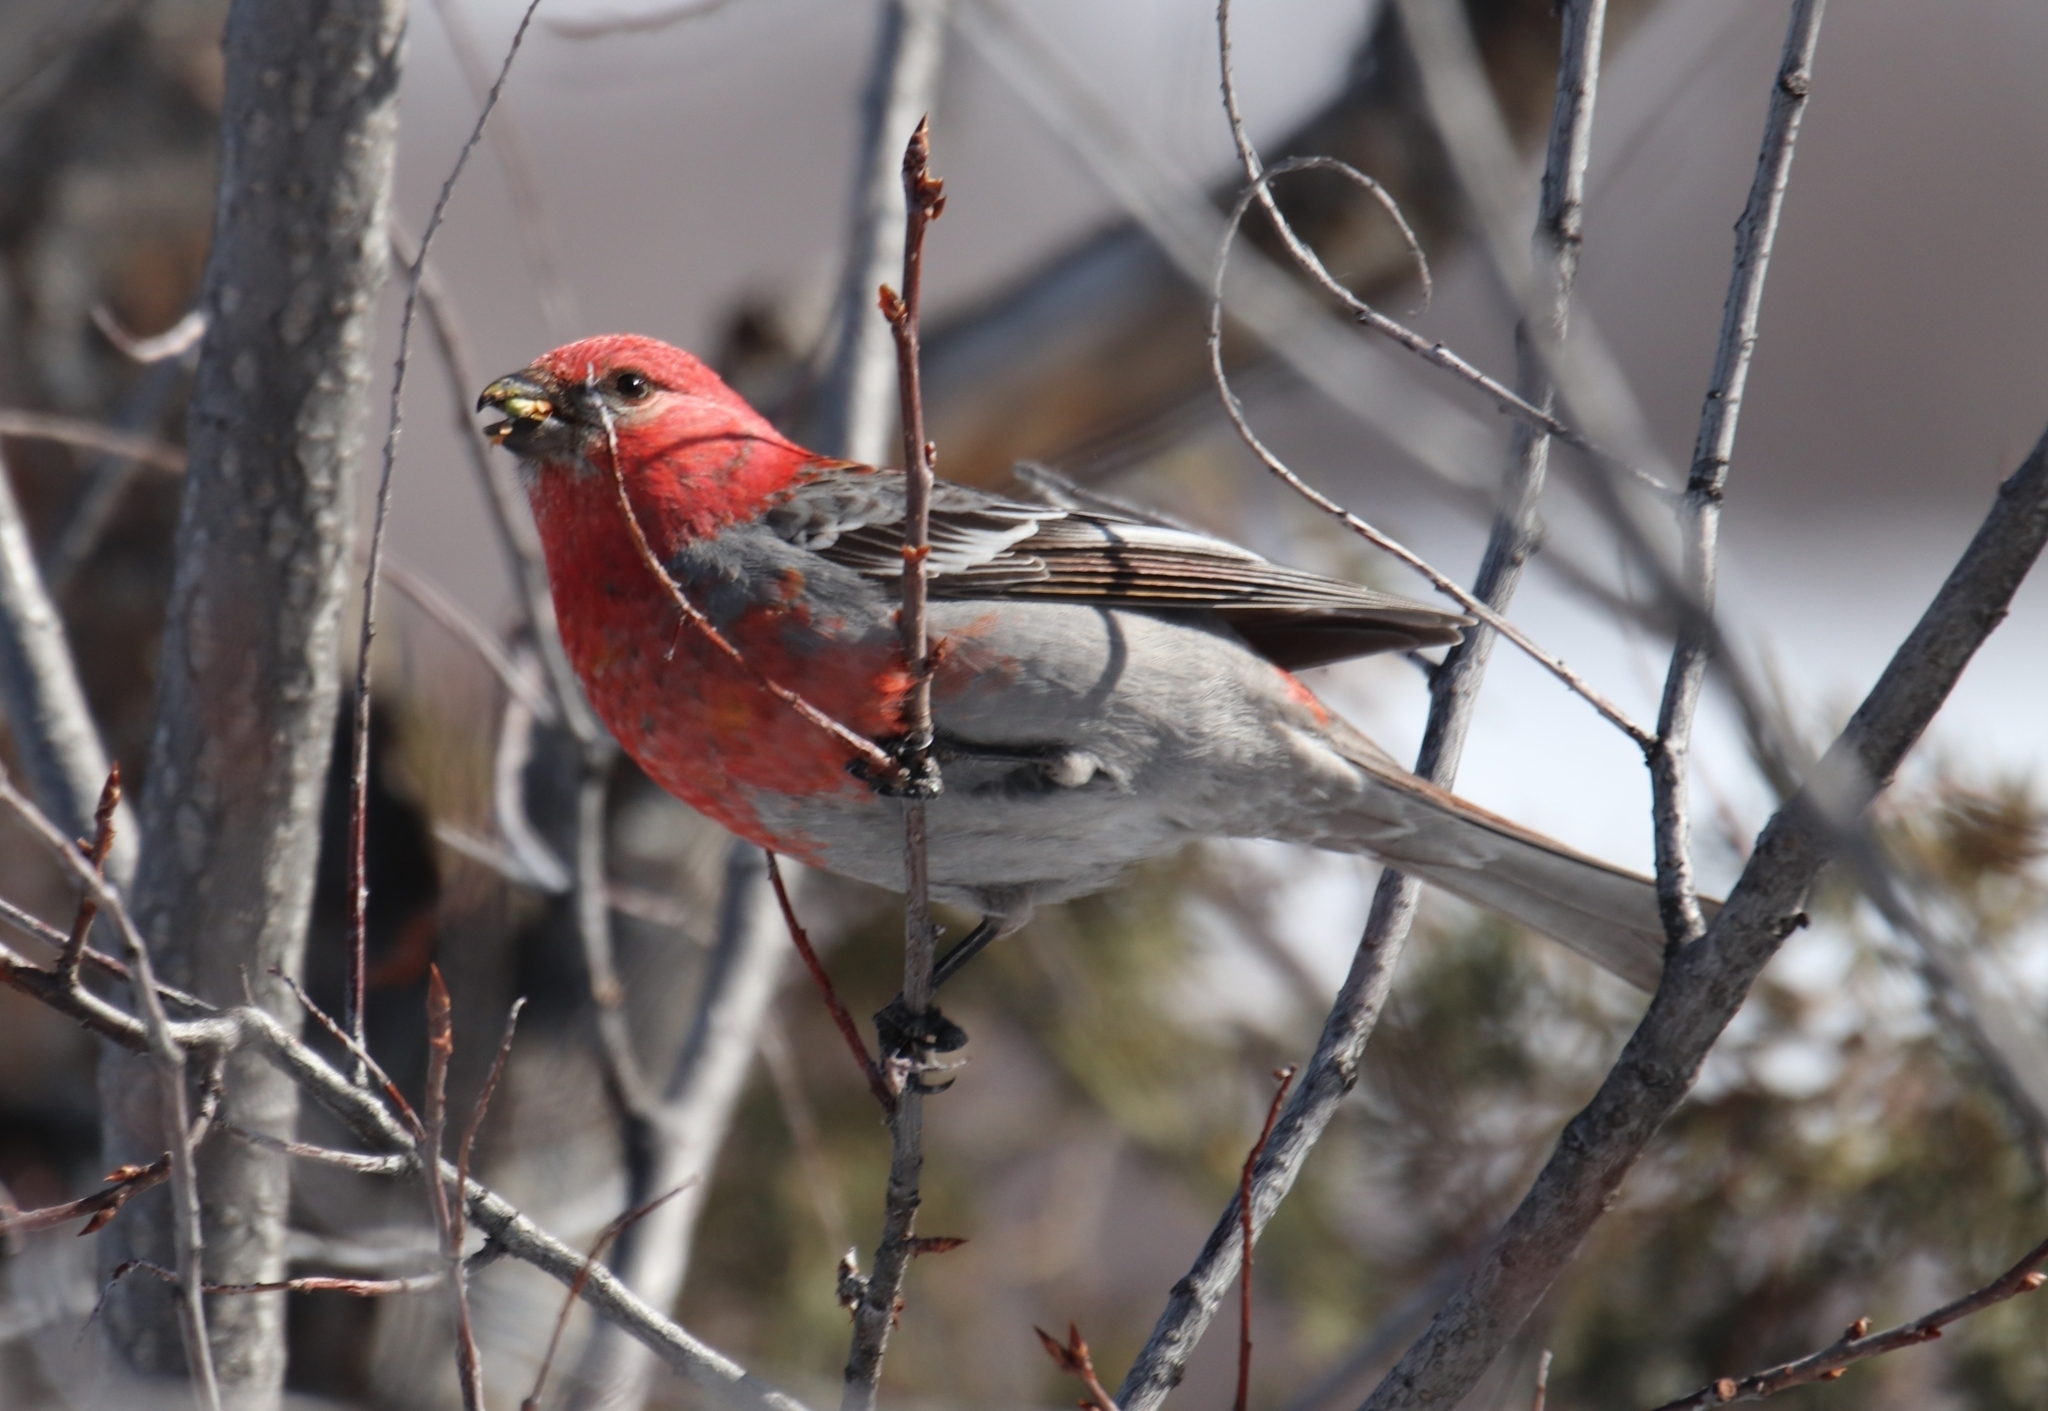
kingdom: Animalia
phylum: Chordata
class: Aves
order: Passeriformes
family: Fringillidae
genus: Pinicola
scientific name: Pinicola enucleator
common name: Pine grosbeak
